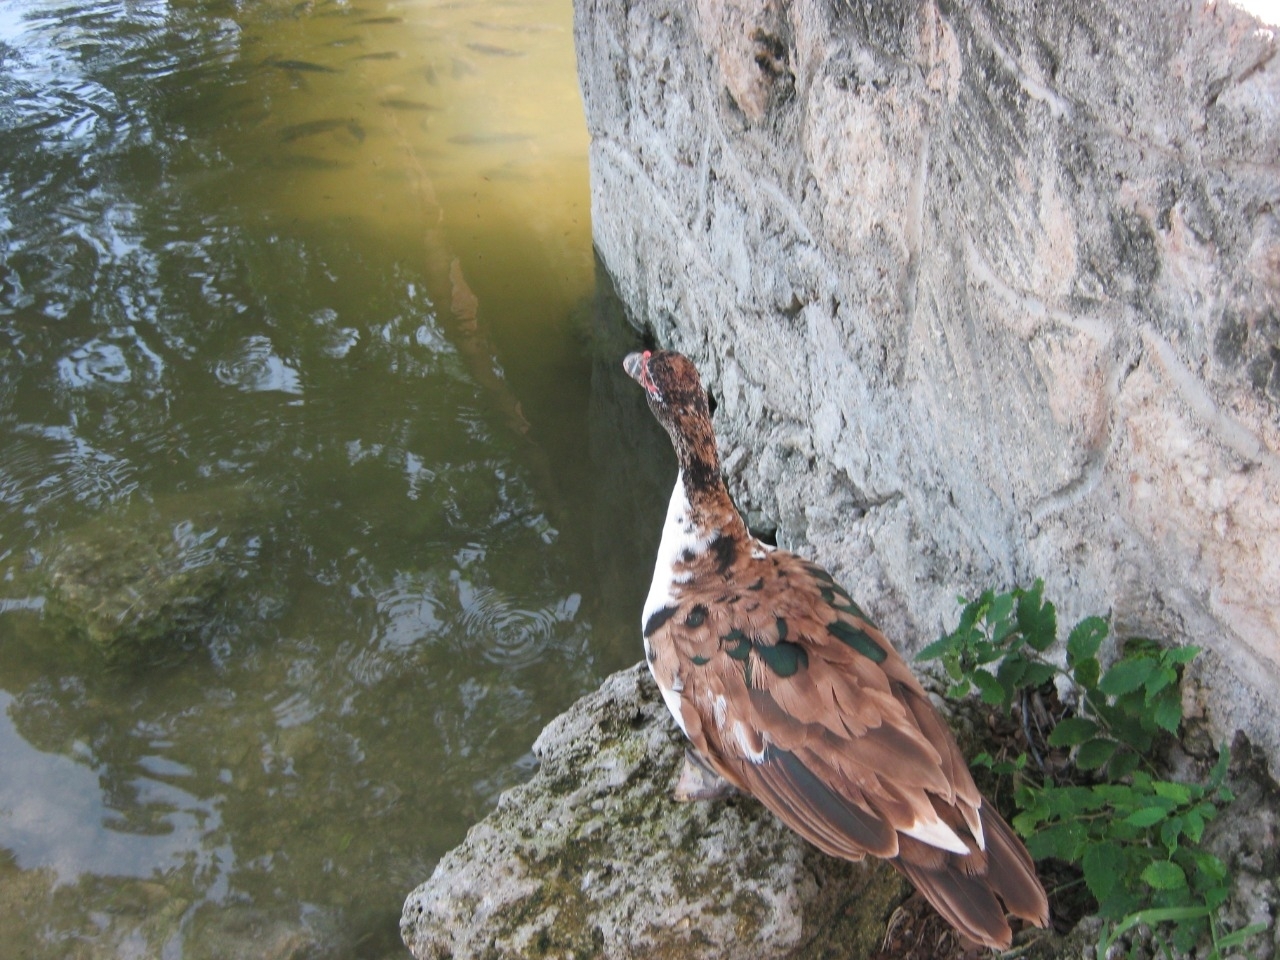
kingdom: Animalia
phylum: Chordata
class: Aves
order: Anseriformes
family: Anatidae
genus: Cairina
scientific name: Cairina moschata
